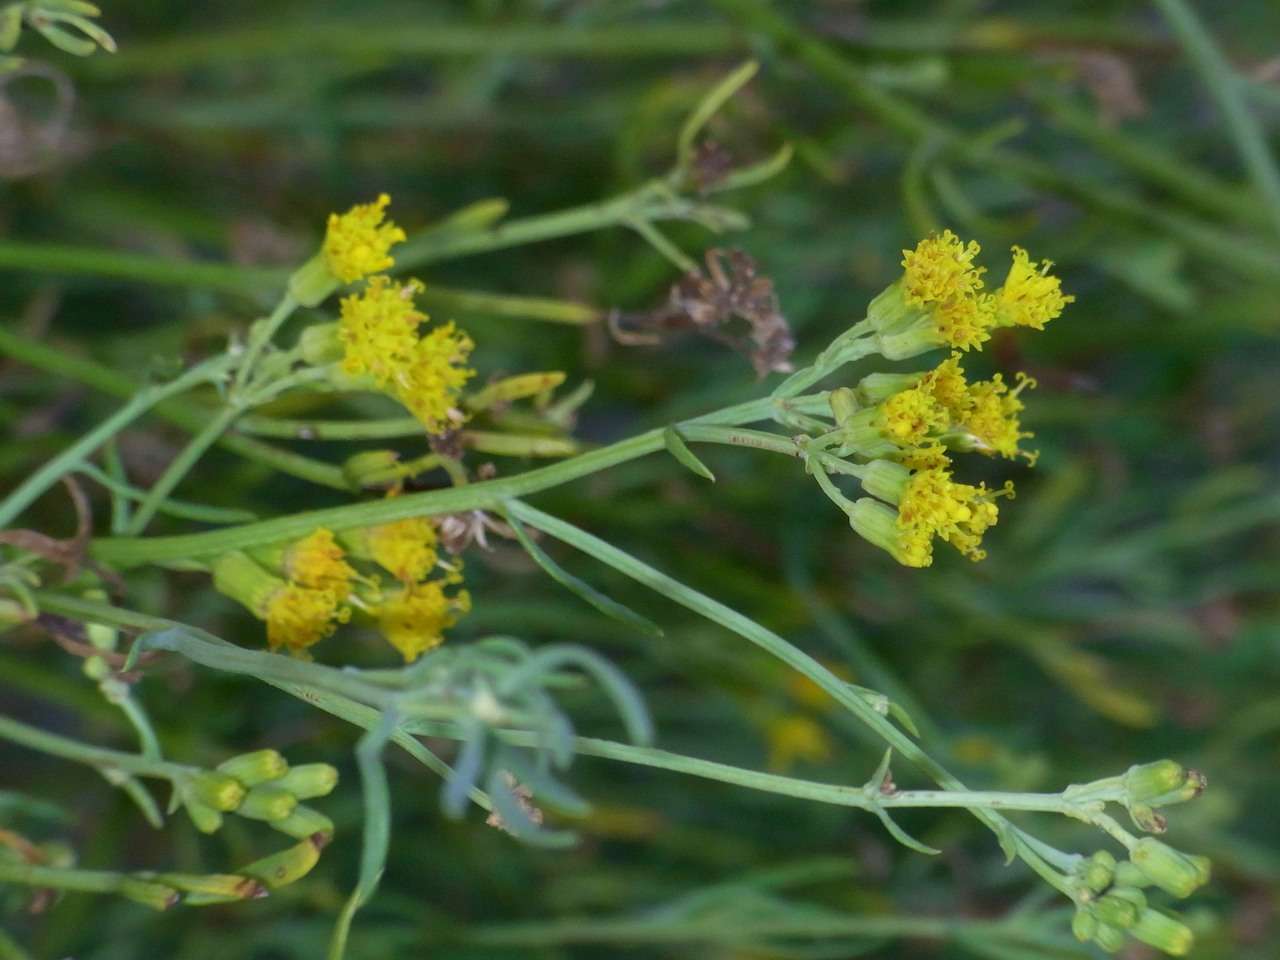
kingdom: Plantae
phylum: Tracheophyta
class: Magnoliopsida
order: Asterales
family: Asteraceae
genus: Senecio
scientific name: Senecio cunninghamii
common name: Bushy groundsel
